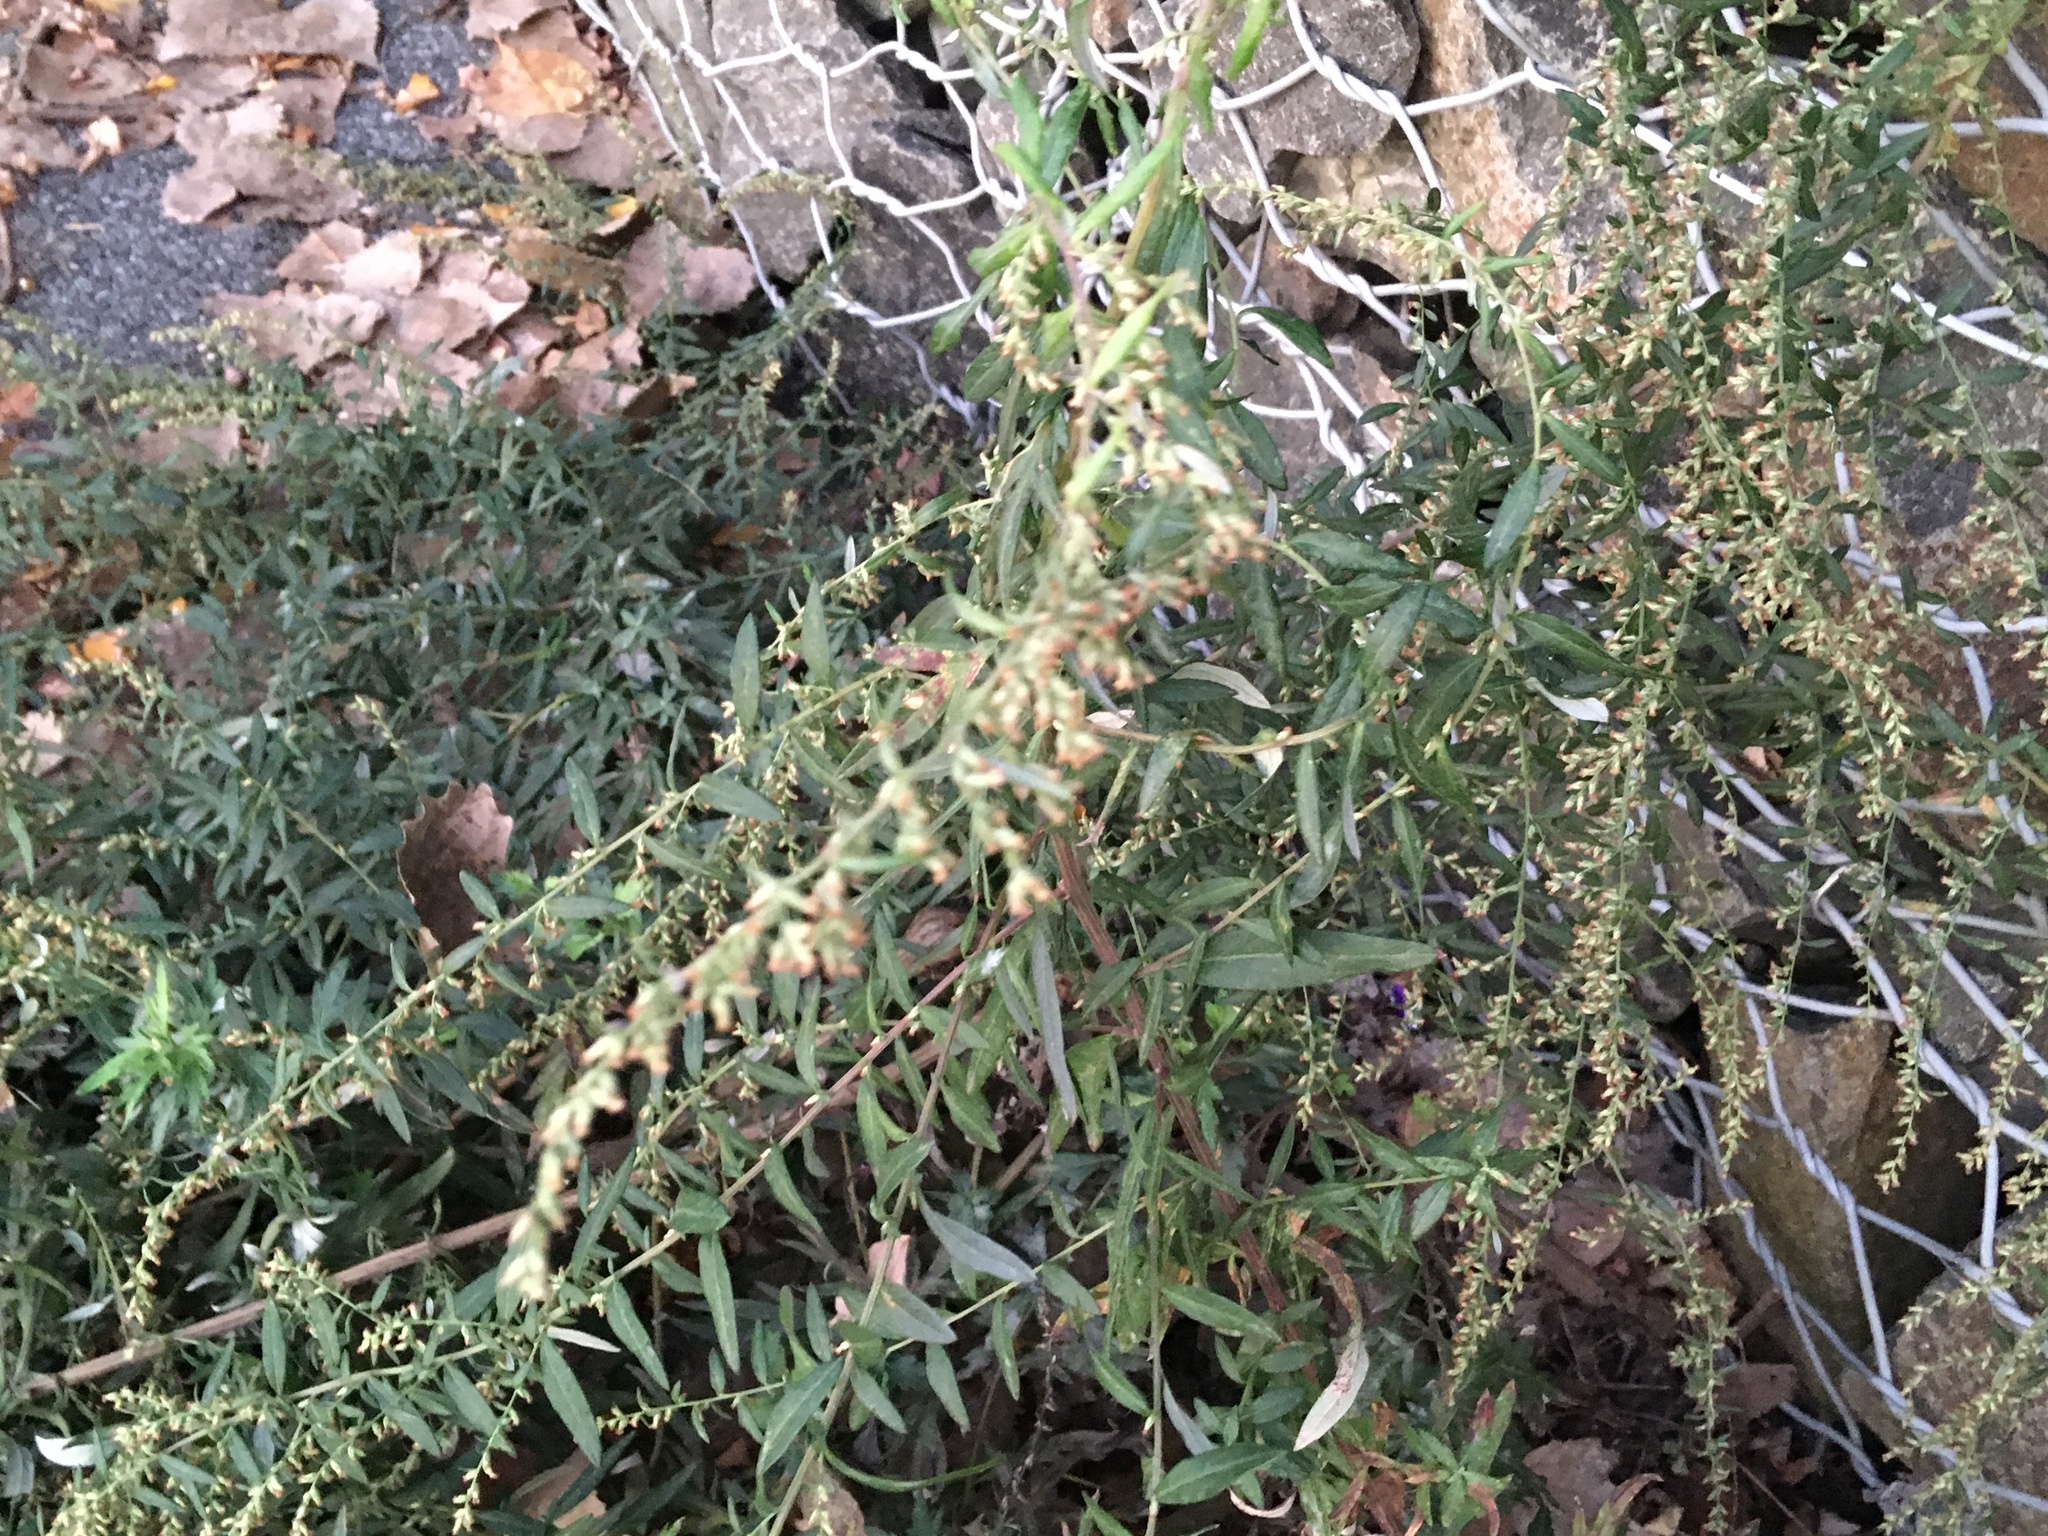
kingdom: Plantae
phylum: Tracheophyta
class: Magnoliopsida
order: Asterales
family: Asteraceae
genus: Artemisia
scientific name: Artemisia vulgaris
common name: Mugwort
